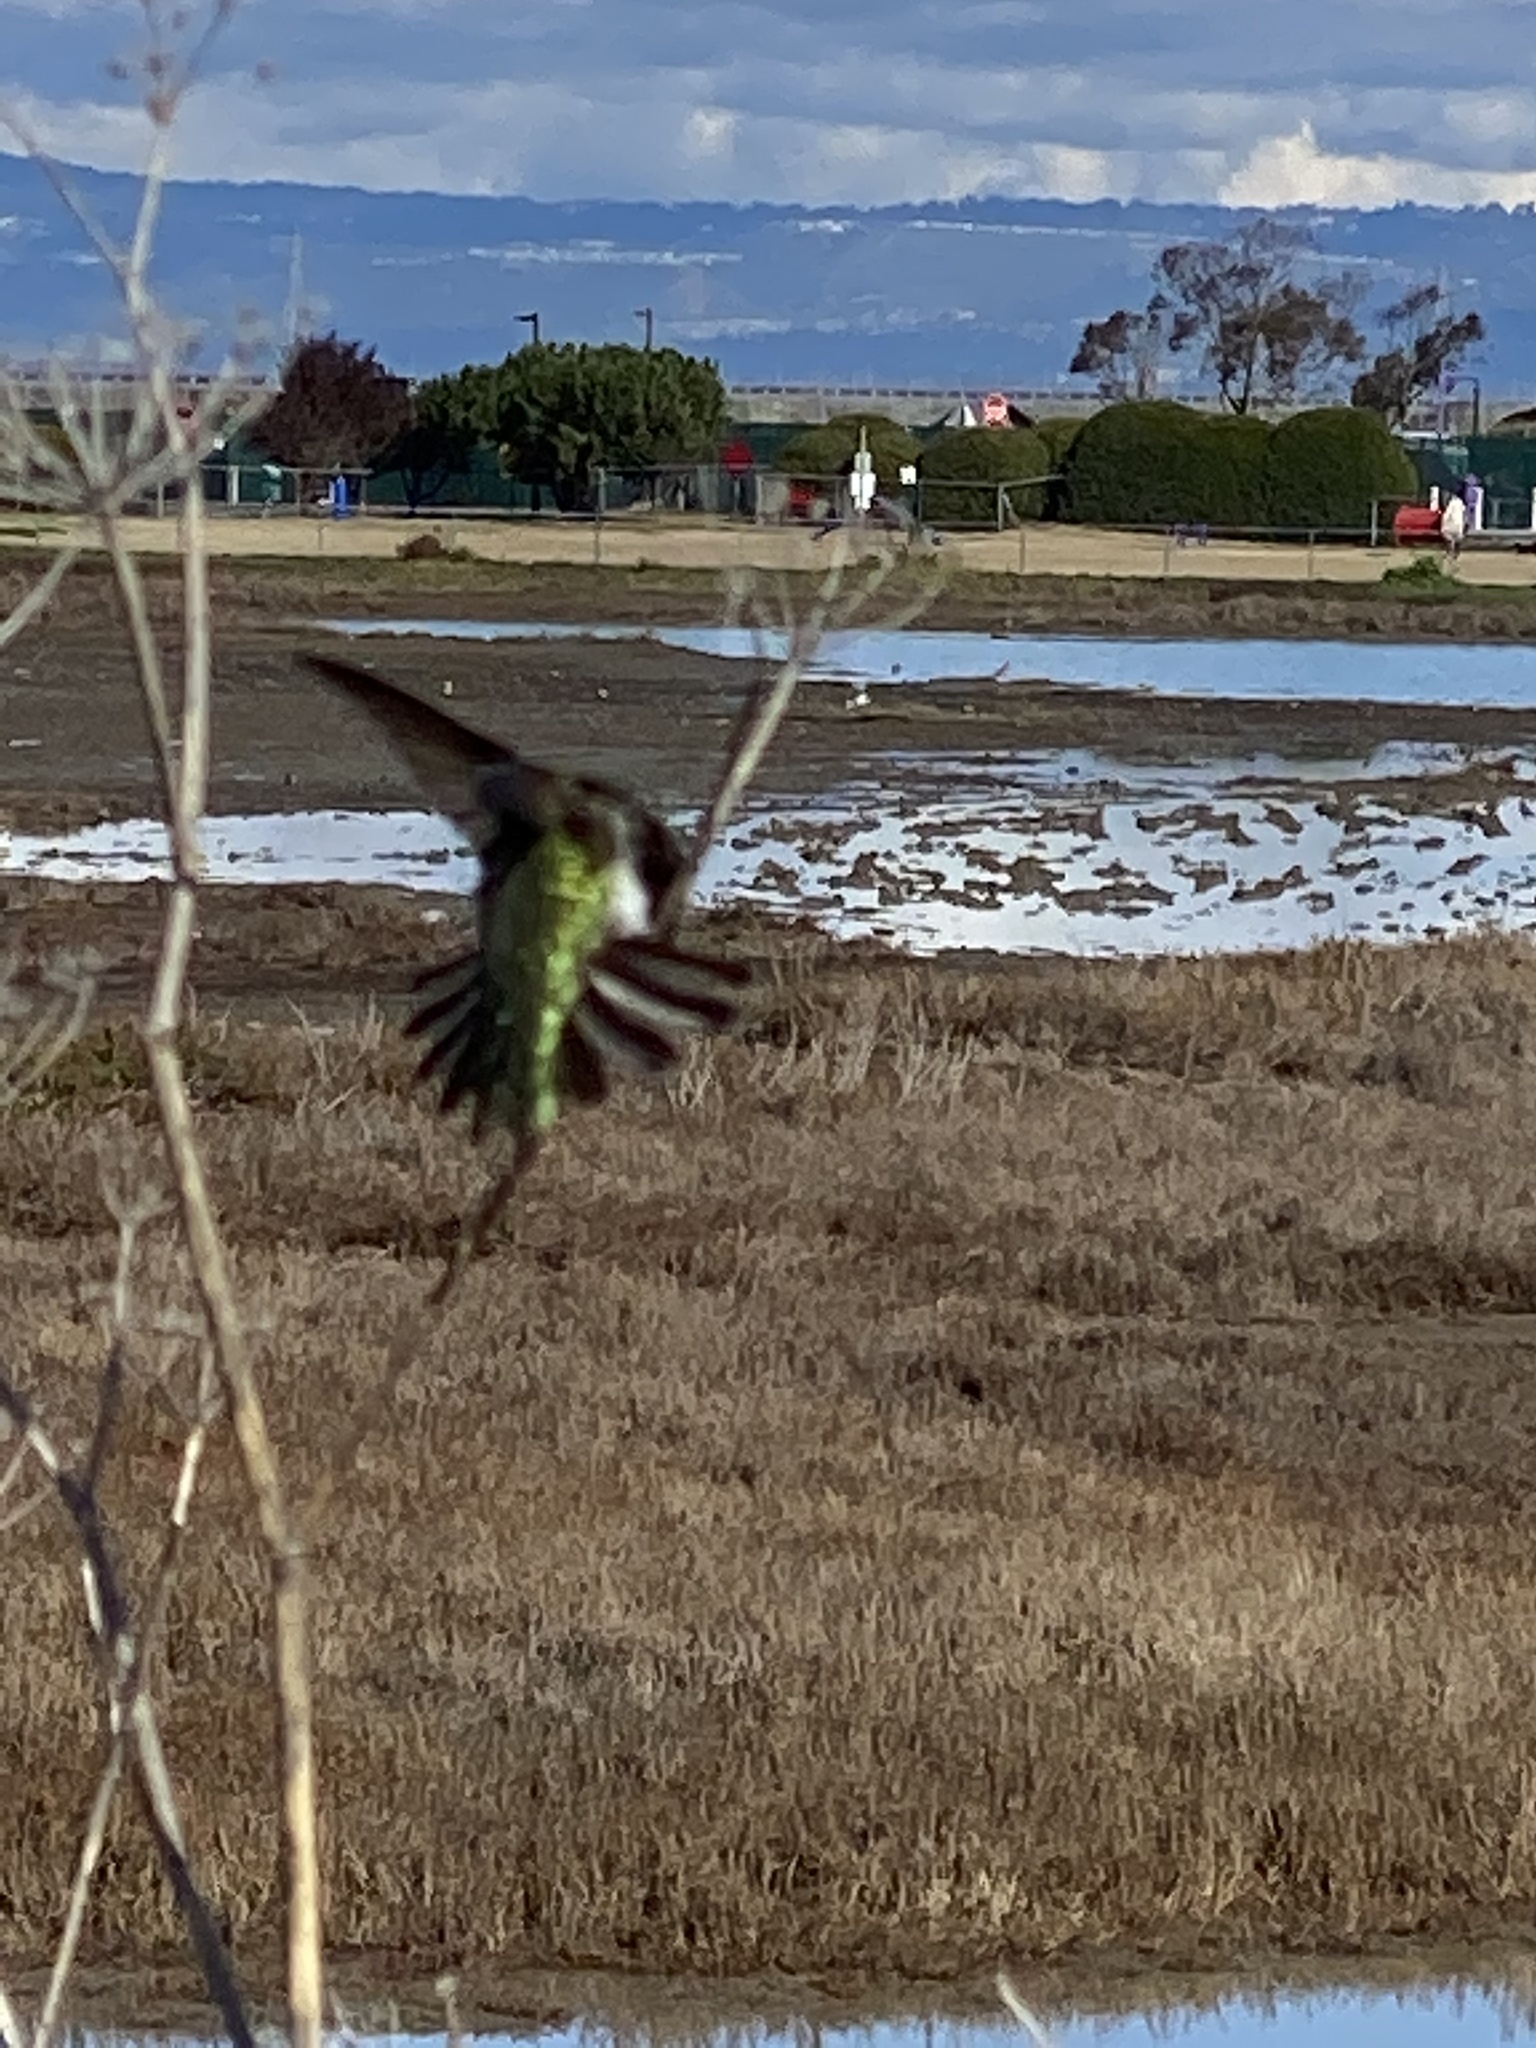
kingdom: Animalia
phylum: Chordata
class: Aves
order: Apodiformes
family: Trochilidae
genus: Calypte
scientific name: Calypte anna
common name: Anna's hummingbird
